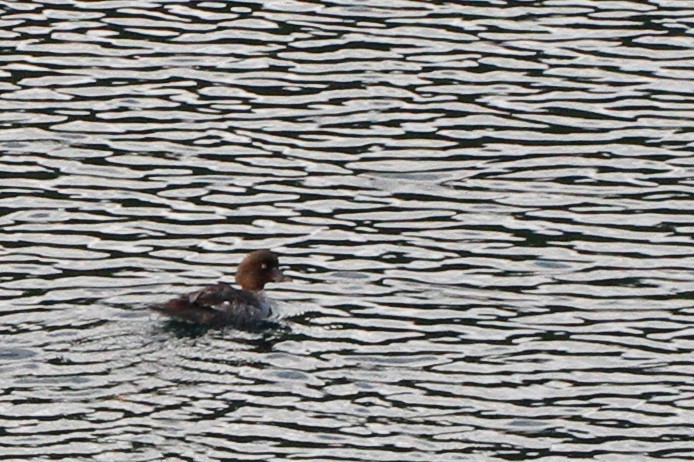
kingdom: Animalia
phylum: Chordata
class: Aves
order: Anseriformes
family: Anatidae
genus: Bucephala
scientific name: Bucephala islandica
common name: Barrow's goldeneye
